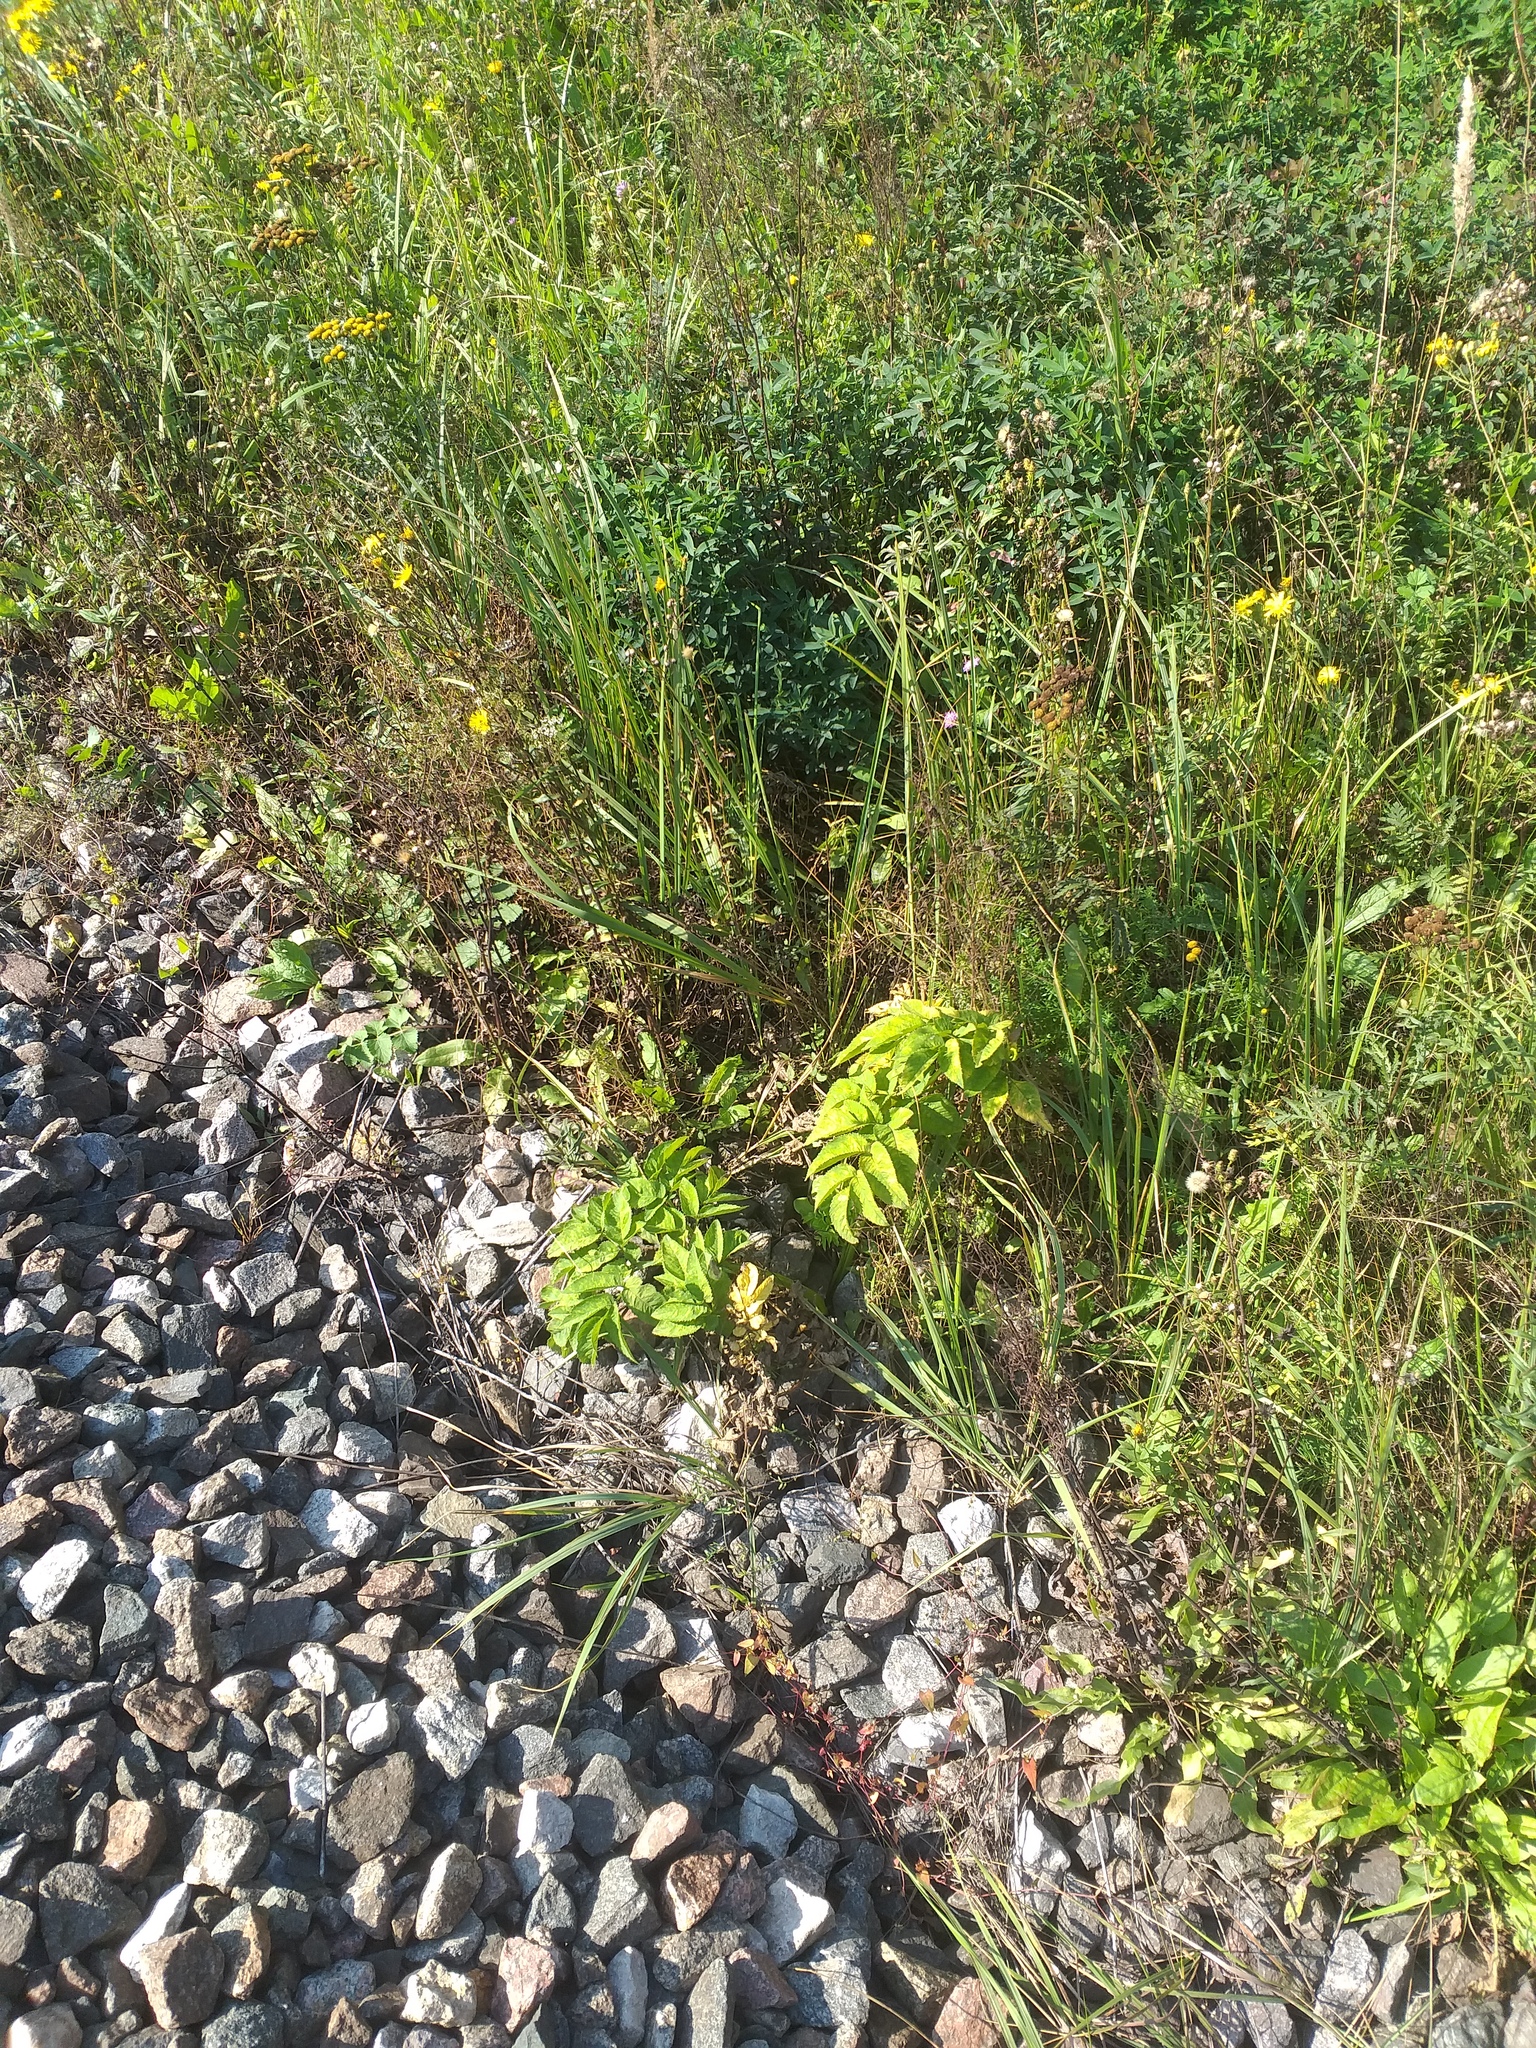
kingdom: Plantae
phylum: Tracheophyta
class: Magnoliopsida
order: Apiales
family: Apiaceae
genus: Angelica
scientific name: Angelica sylvestris
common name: Wild angelica
